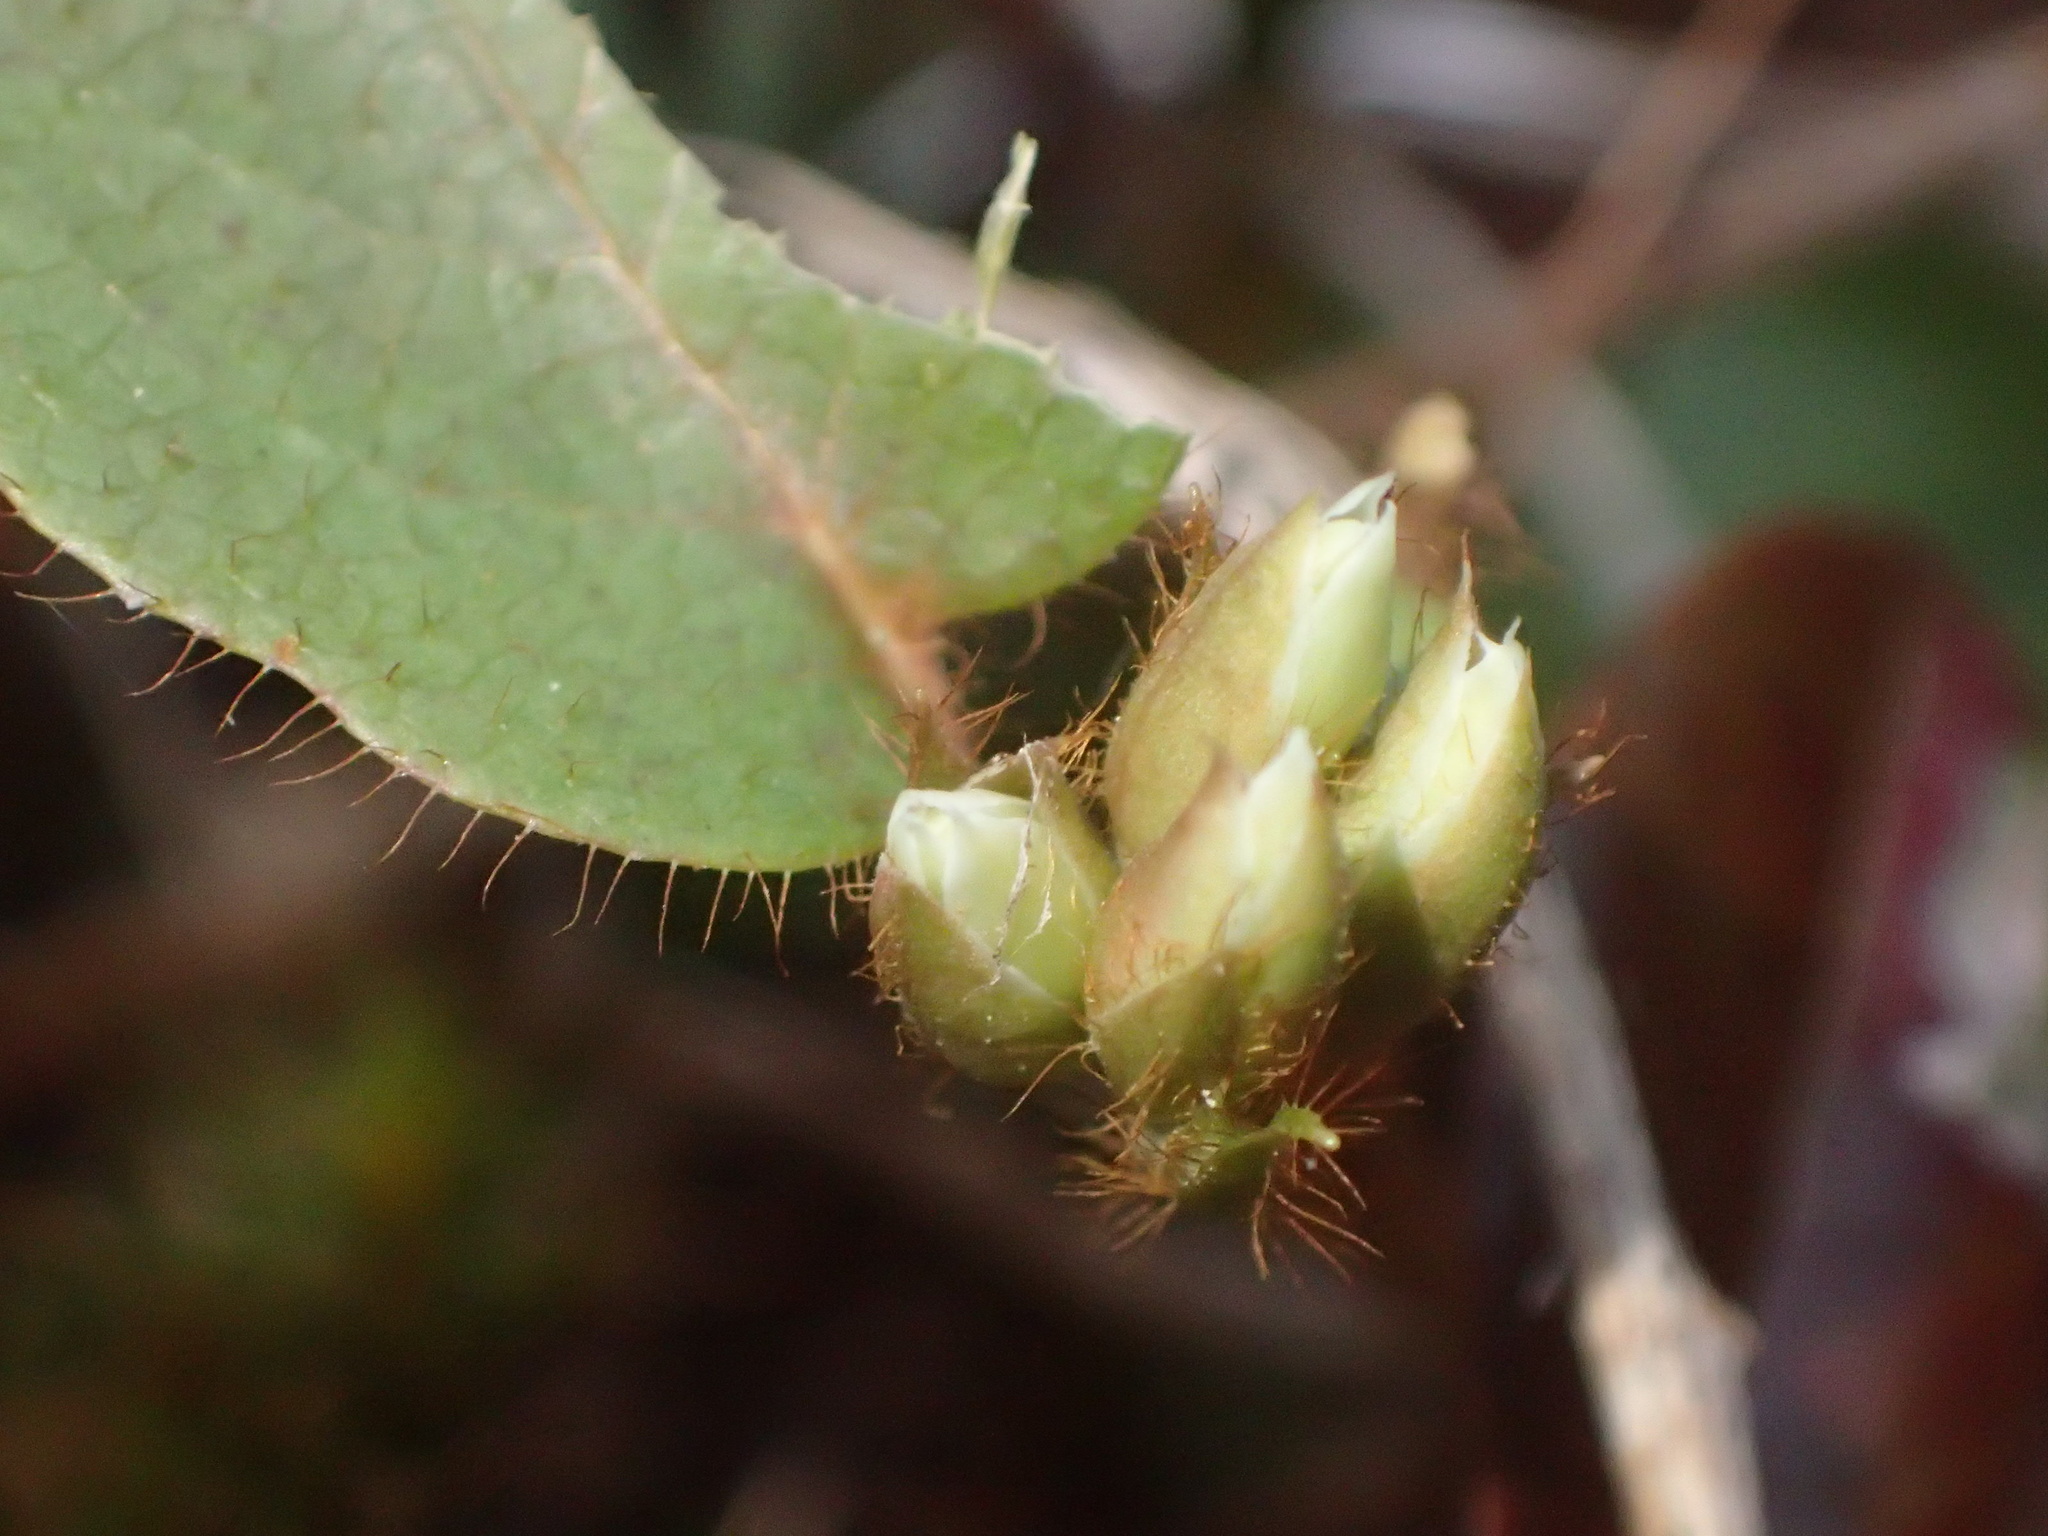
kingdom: Plantae
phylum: Tracheophyta
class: Magnoliopsida
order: Ericales
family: Ericaceae
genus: Epigaea
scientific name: Epigaea repens
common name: Gravelroot
